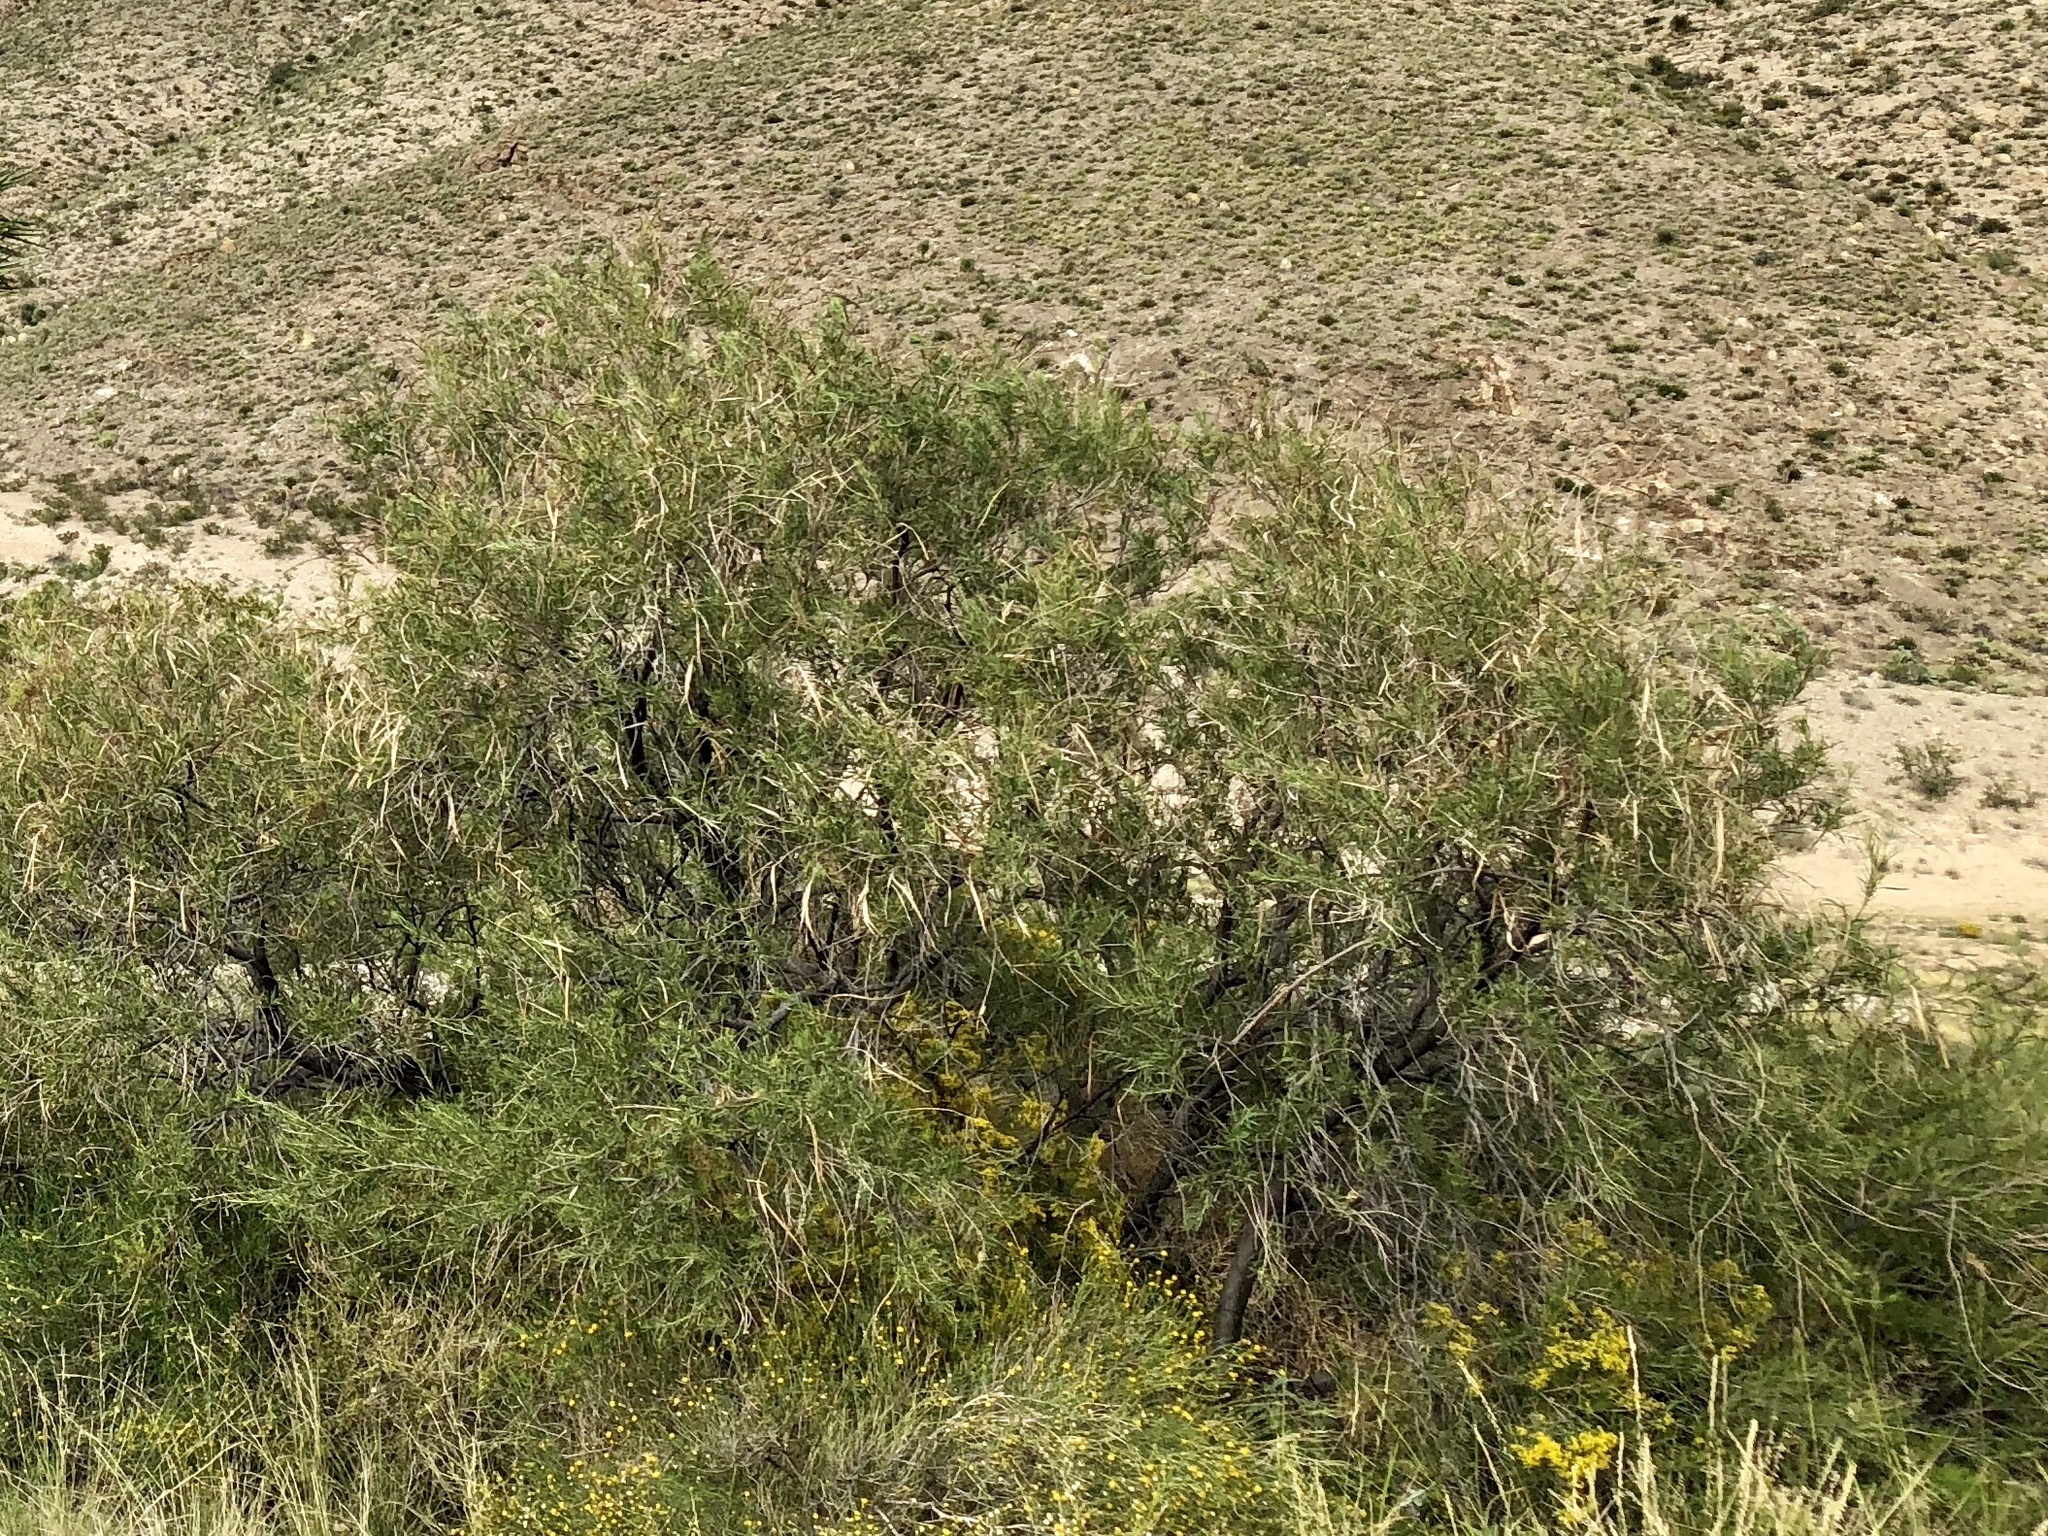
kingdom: Plantae
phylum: Tracheophyta
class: Magnoliopsida
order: Lamiales
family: Bignoniaceae
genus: Chilopsis
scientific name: Chilopsis linearis
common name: Desert-willow
